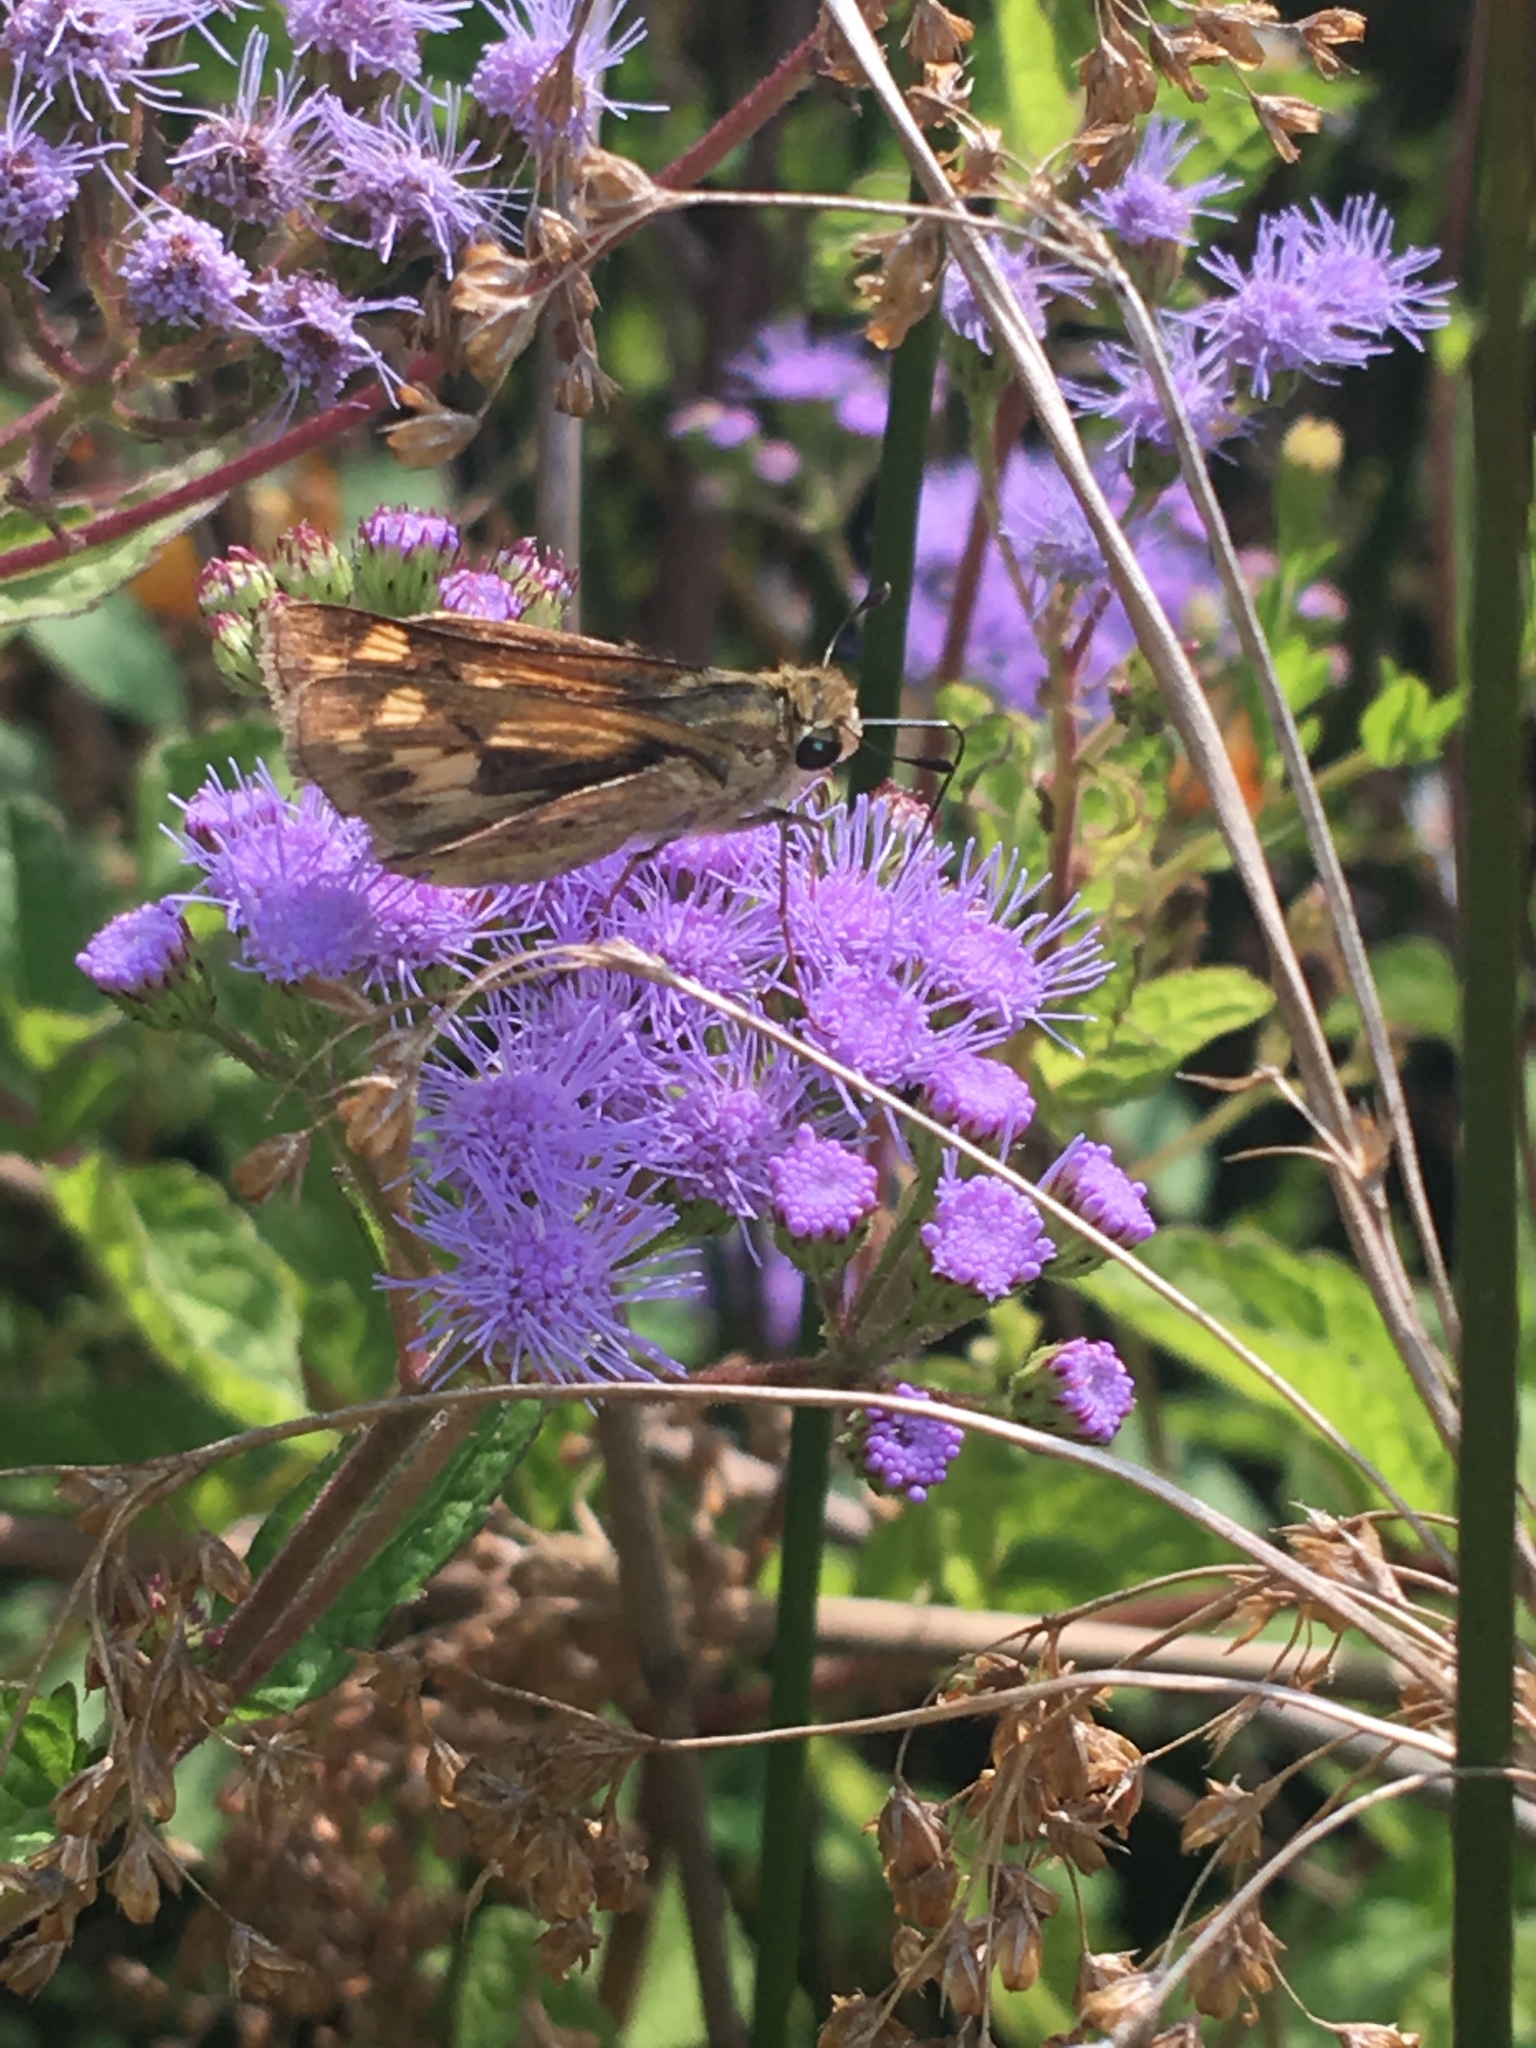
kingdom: Animalia
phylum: Arthropoda
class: Insecta
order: Lepidoptera
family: Hesperiidae
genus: Hylephila
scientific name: Hylephila phyleus
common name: Fiery skipper
